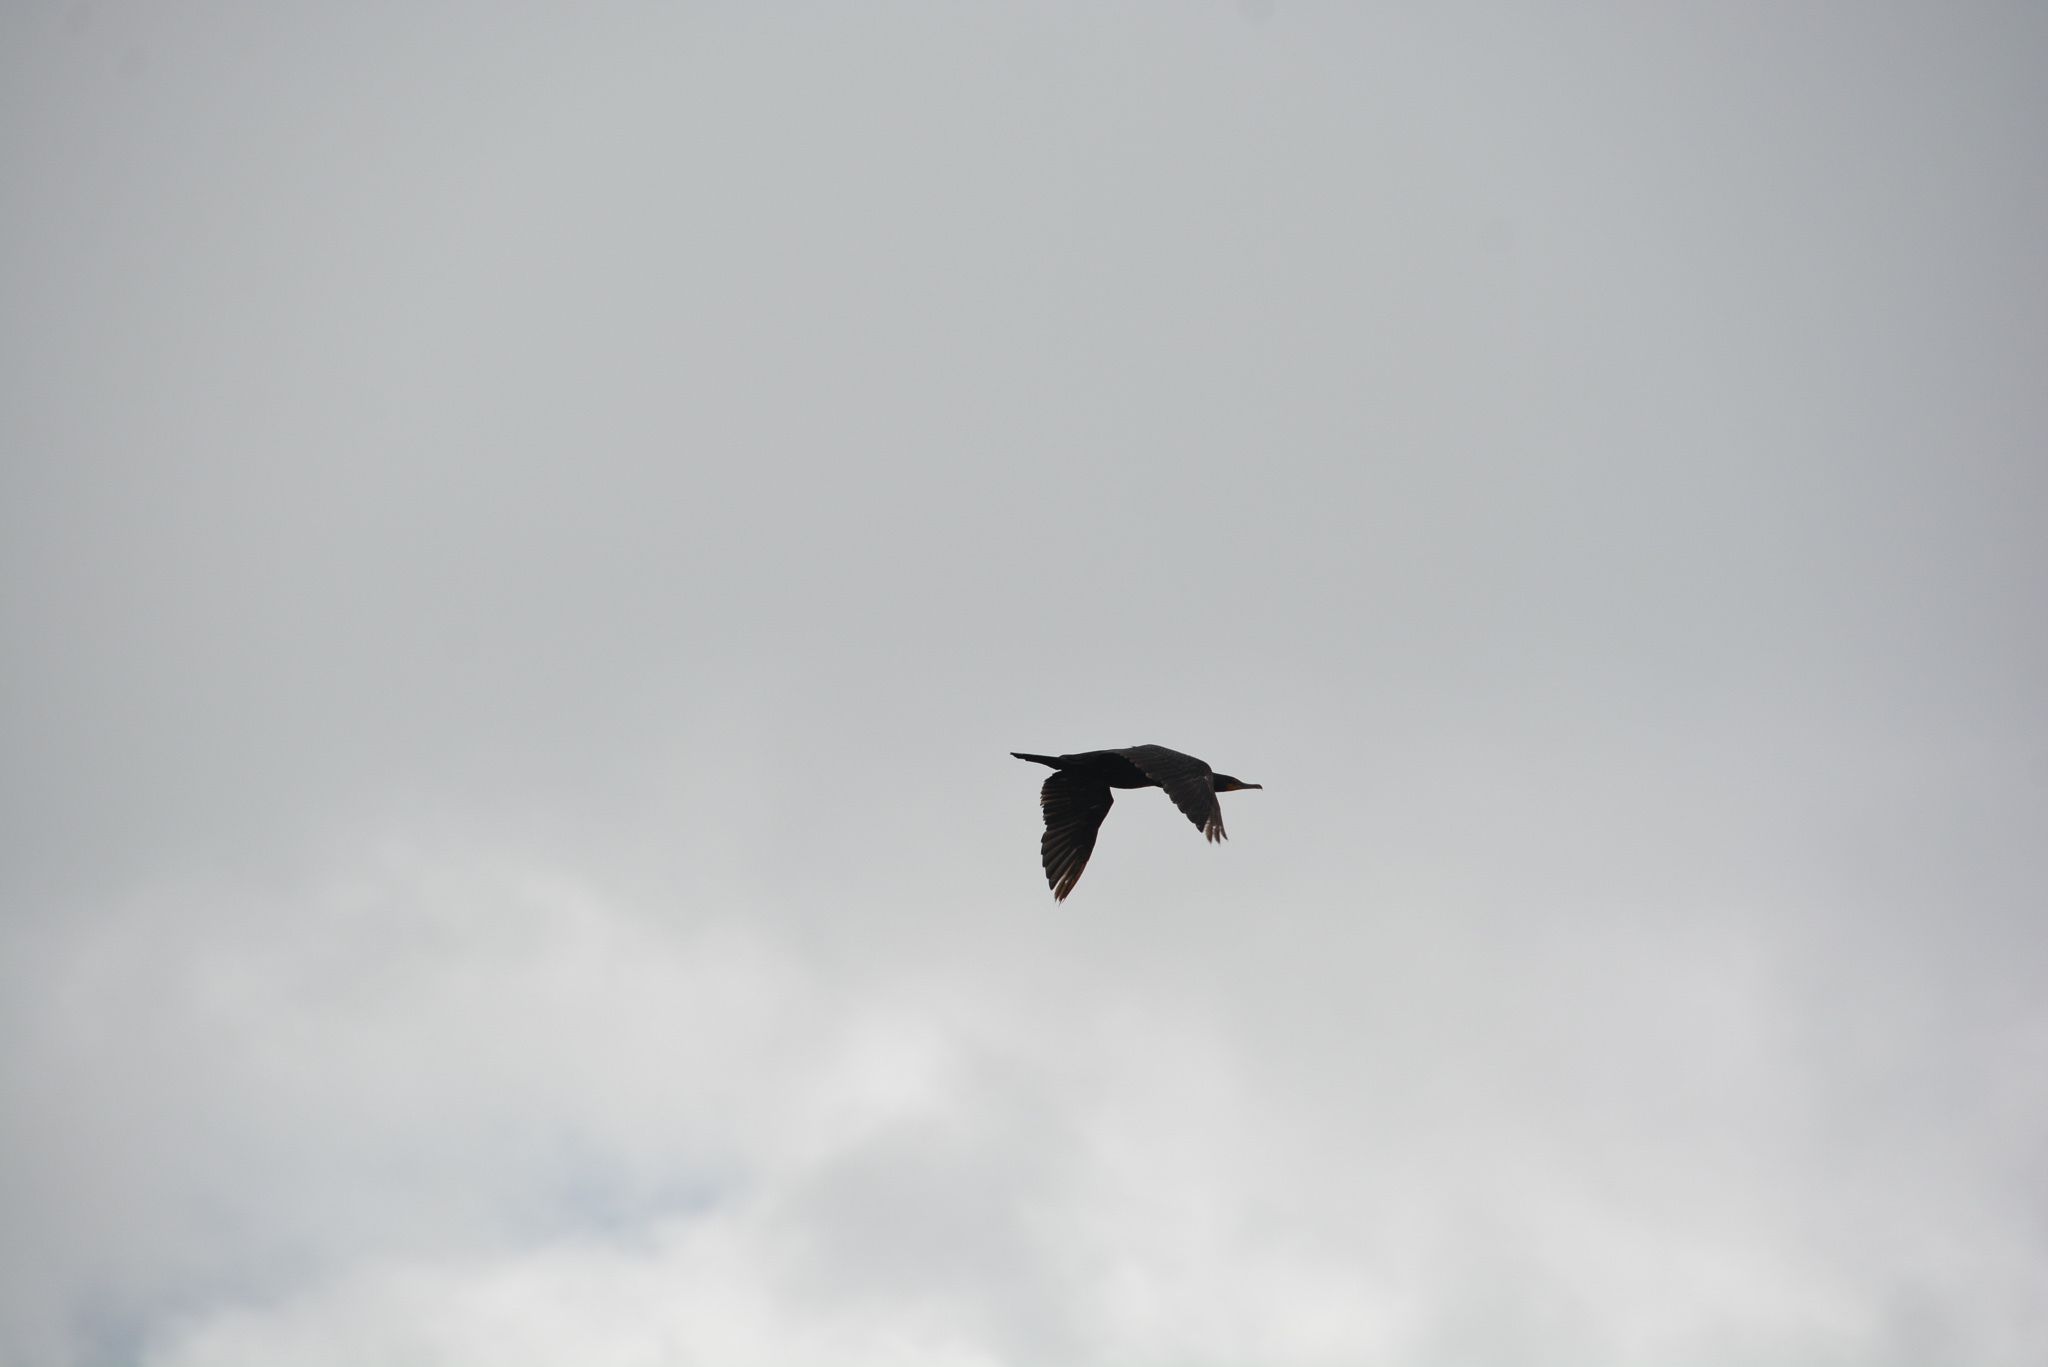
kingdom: Animalia
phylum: Chordata
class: Aves
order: Suliformes
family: Phalacrocoracidae
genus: Phalacrocorax
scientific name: Phalacrocorax auritus
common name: Double-crested cormorant
